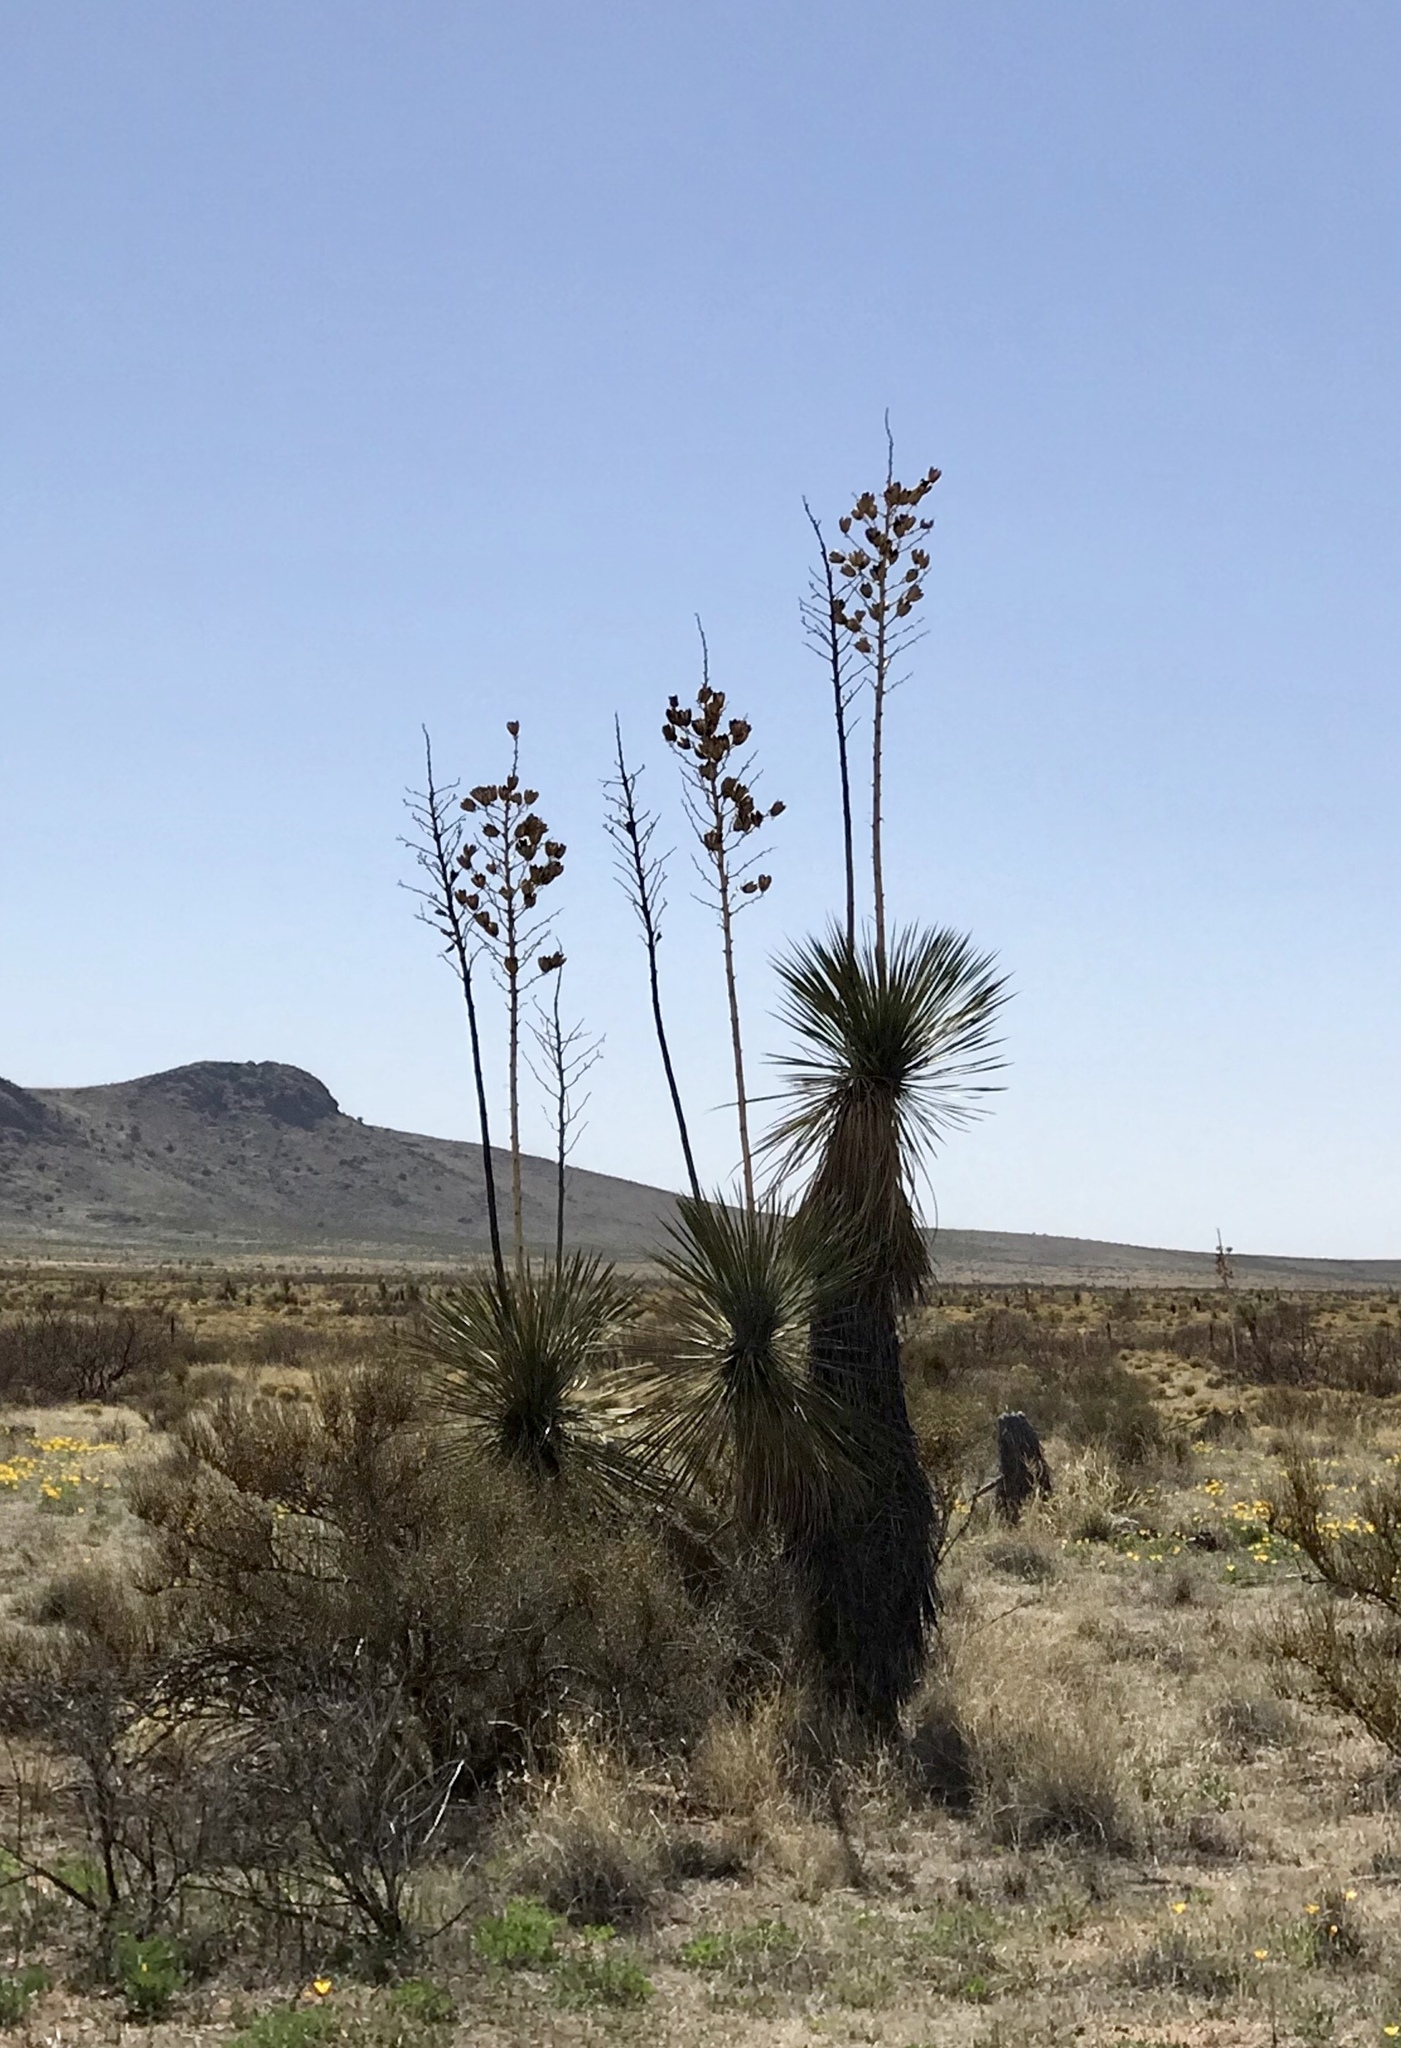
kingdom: Plantae
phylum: Tracheophyta
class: Liliopsida
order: Asparagales
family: Asparagaceae
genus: Yucca
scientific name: Yucca elata
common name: Palmella
